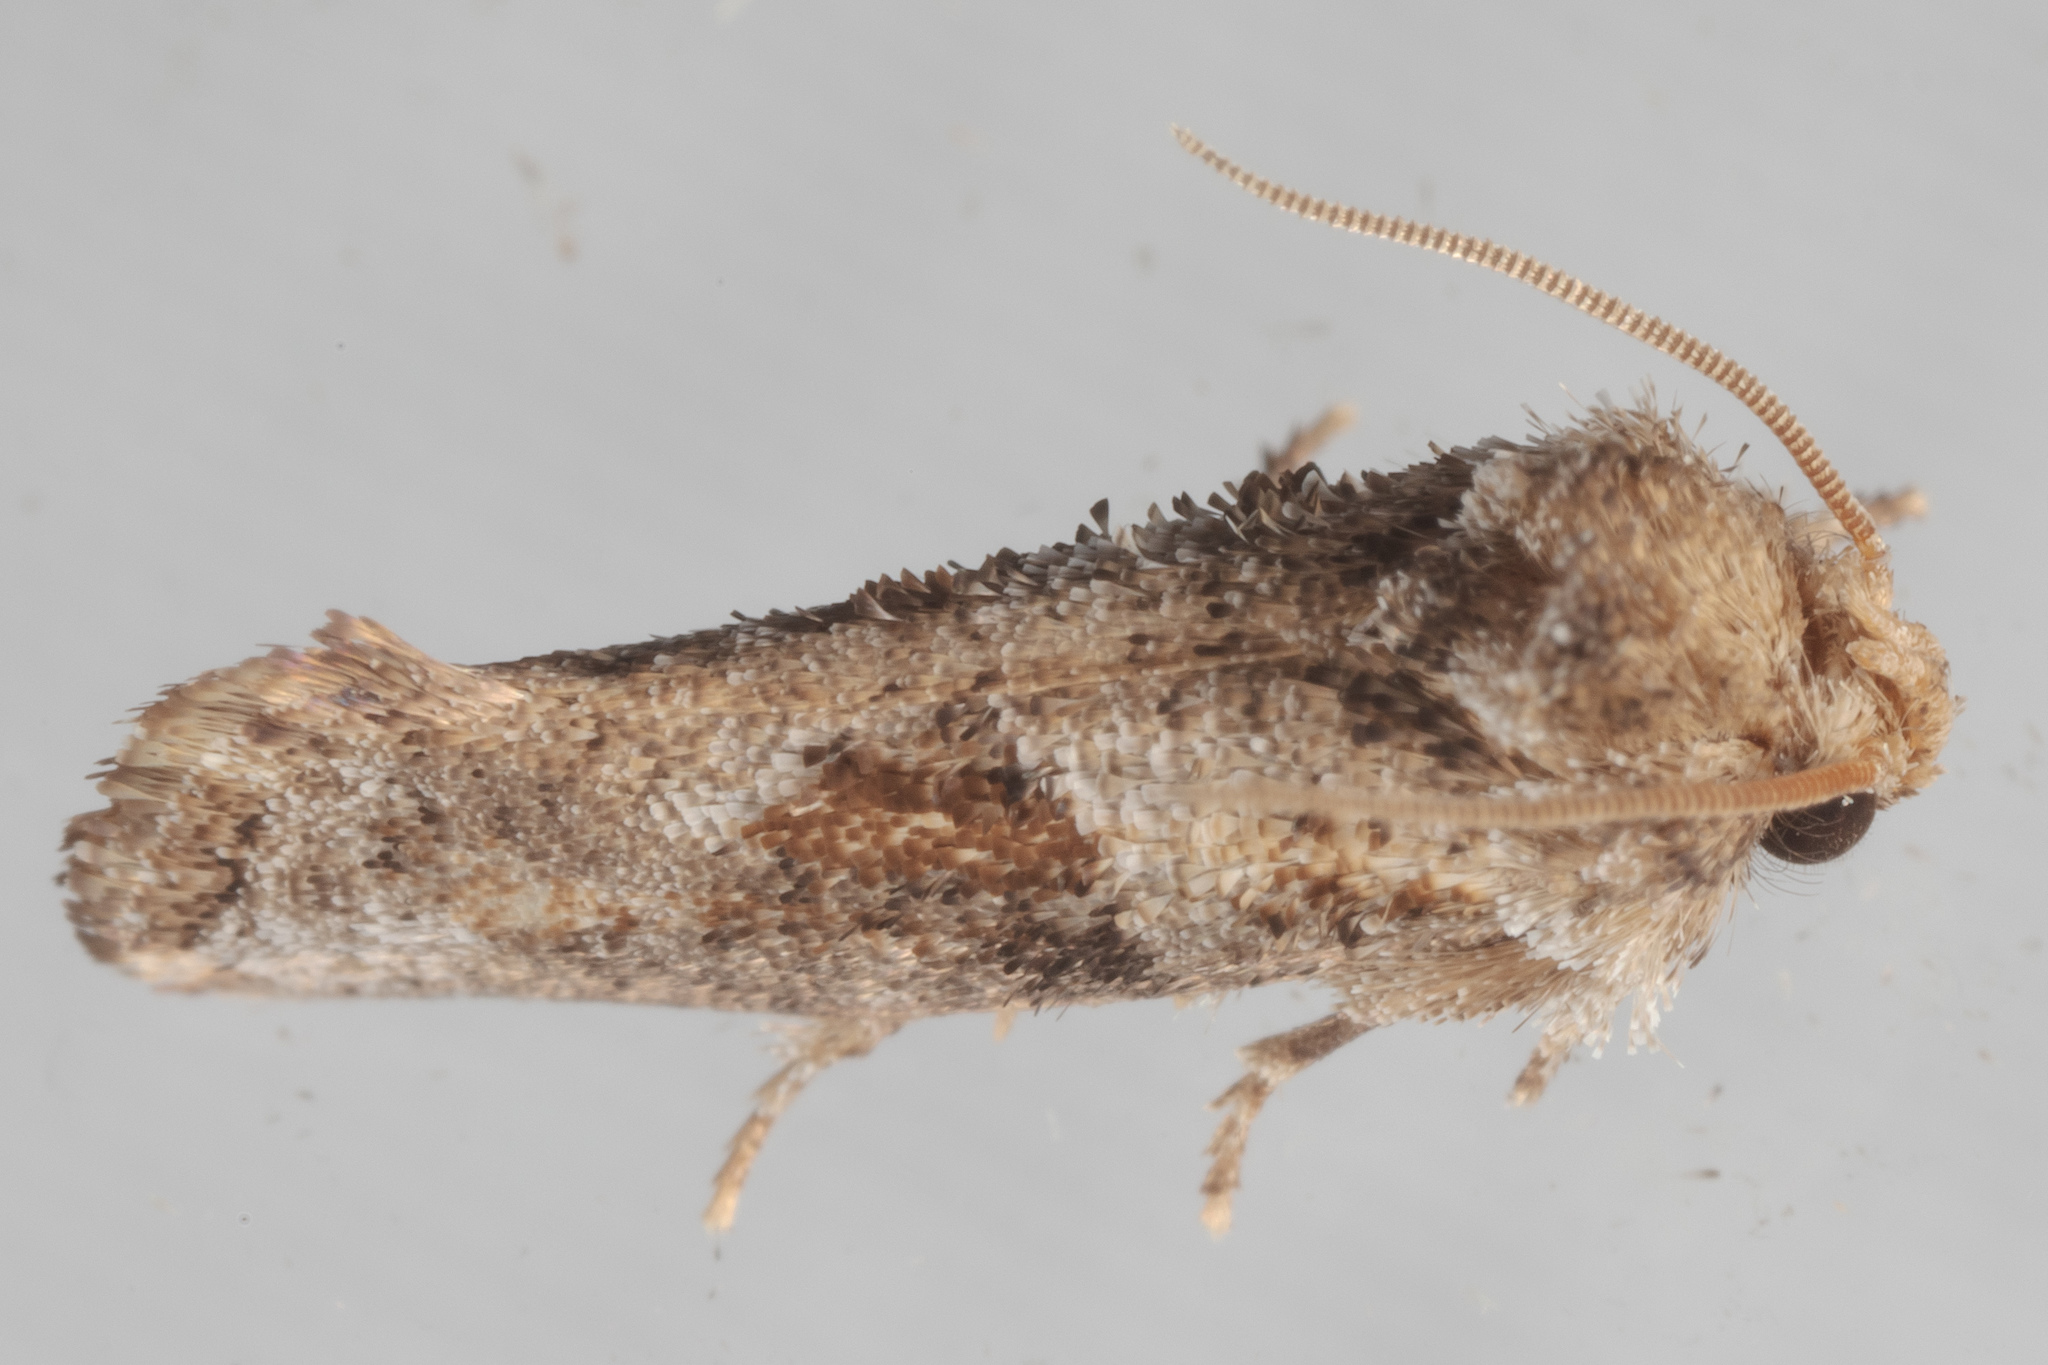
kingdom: Animalia
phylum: Arthropoda
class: Insecta
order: Lepidoptera
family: Tineidae
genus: Acrolophus
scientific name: Acrolophus piger
